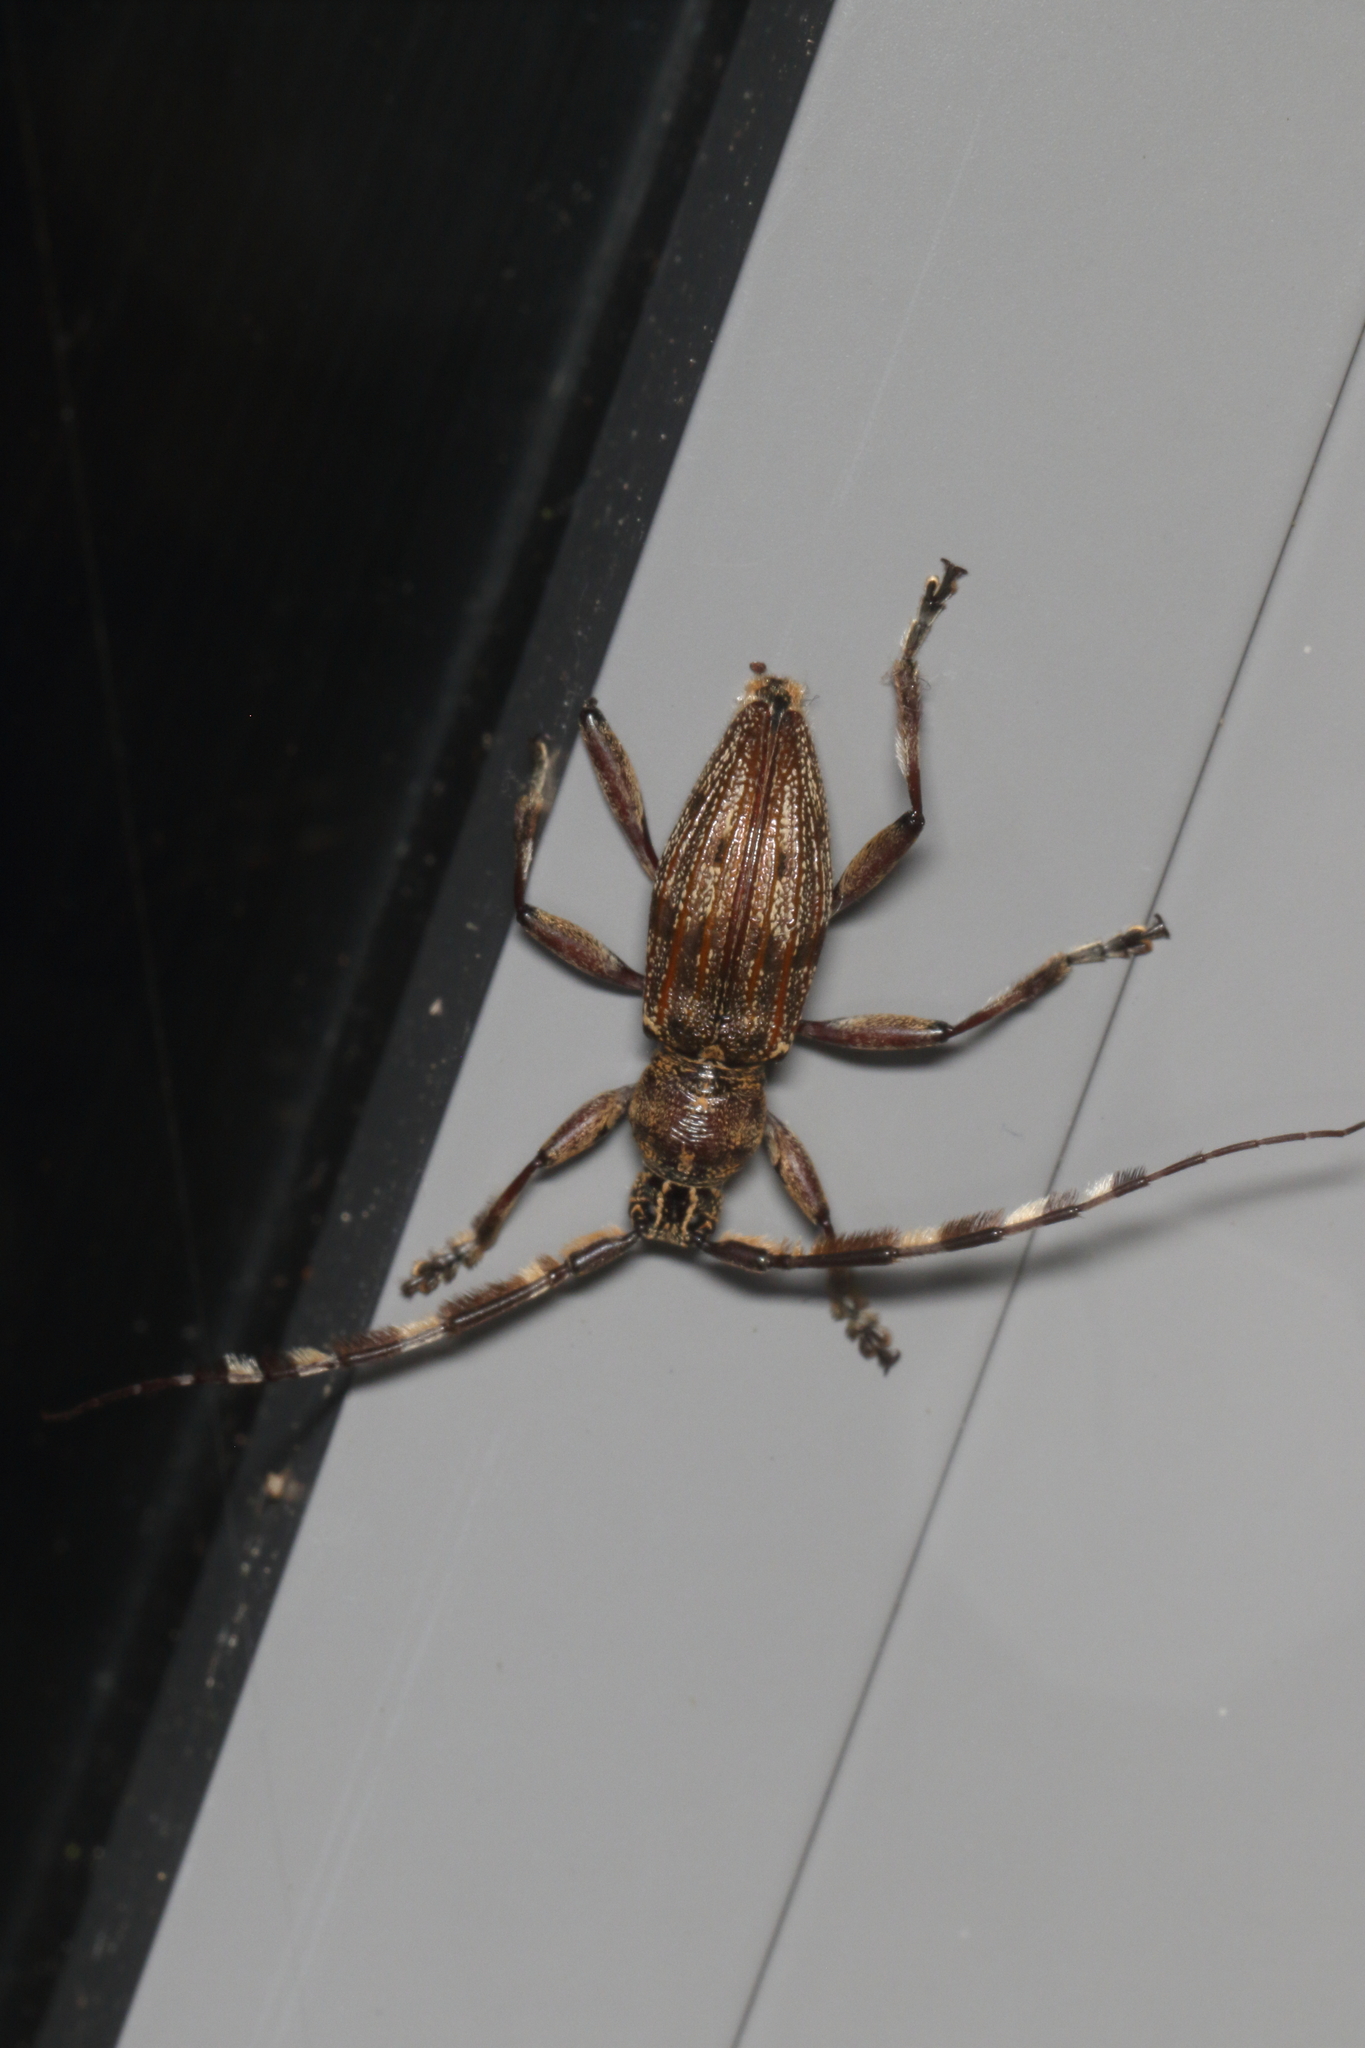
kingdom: Animalia
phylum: Arthropoda
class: Insecta
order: Coleoptera
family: Cerambycidae
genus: Hexatricha
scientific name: Hexatricha pulverulenta
